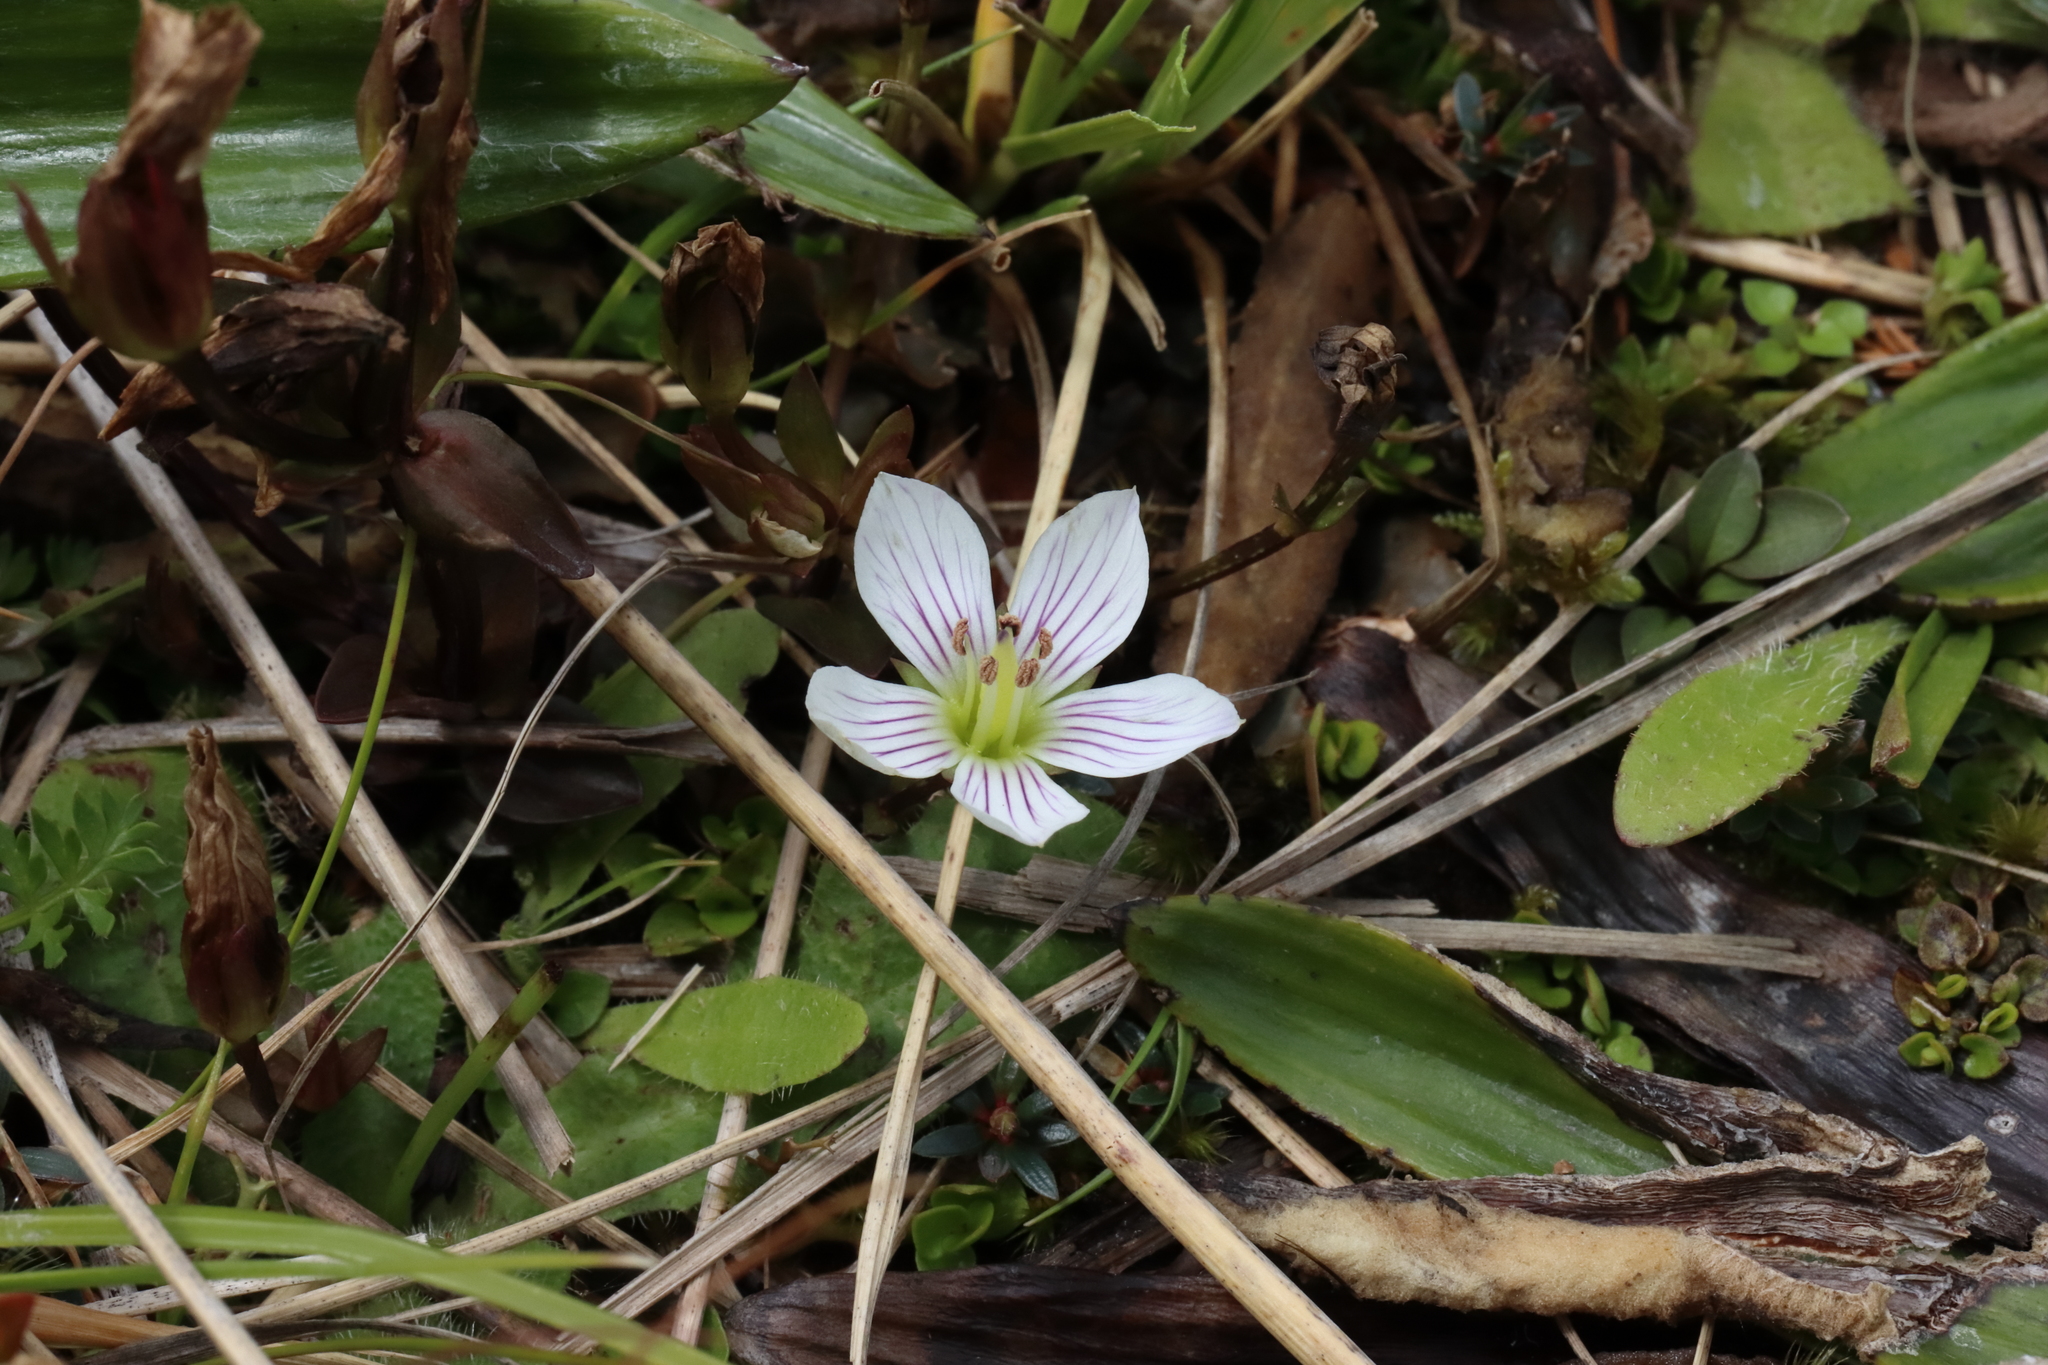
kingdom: Plantae
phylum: Tracheophyta
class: Magnoliopsida
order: Gentianales
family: Gentianaceae
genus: Gentianella
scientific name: Gentianella grisebachii
